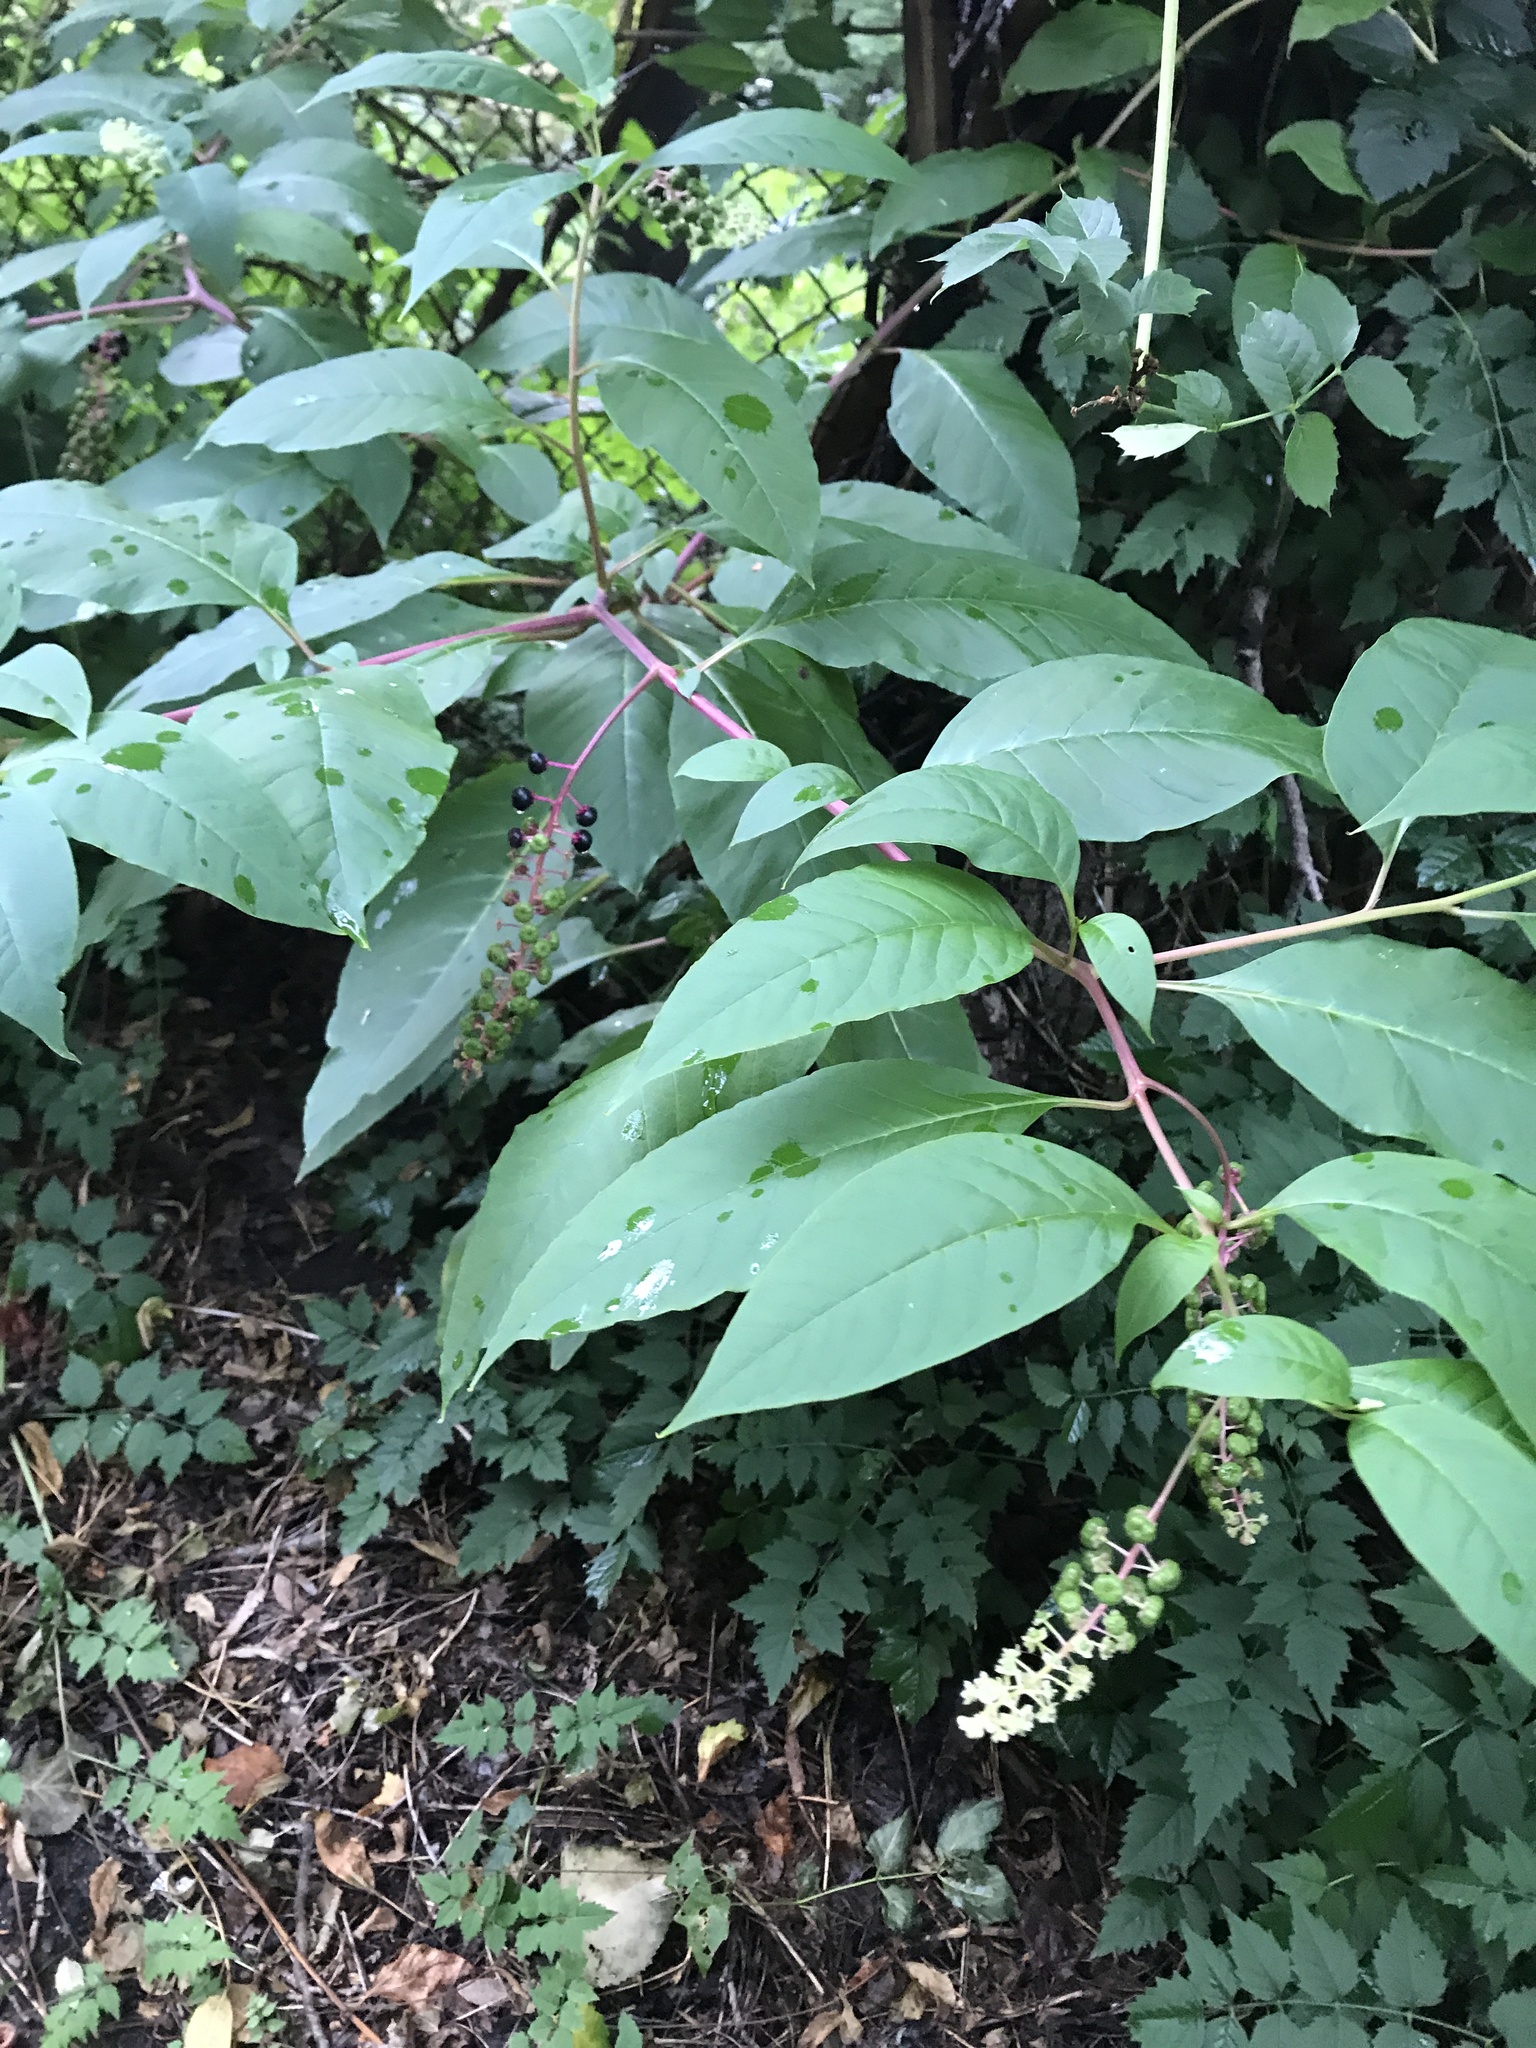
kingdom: Plantae
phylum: Tracheophyta
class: Magnoliopsida
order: Caryophyllales
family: Phytolaccaceae
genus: Phytolacca
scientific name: Phytolacca americana
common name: American pokeweed
